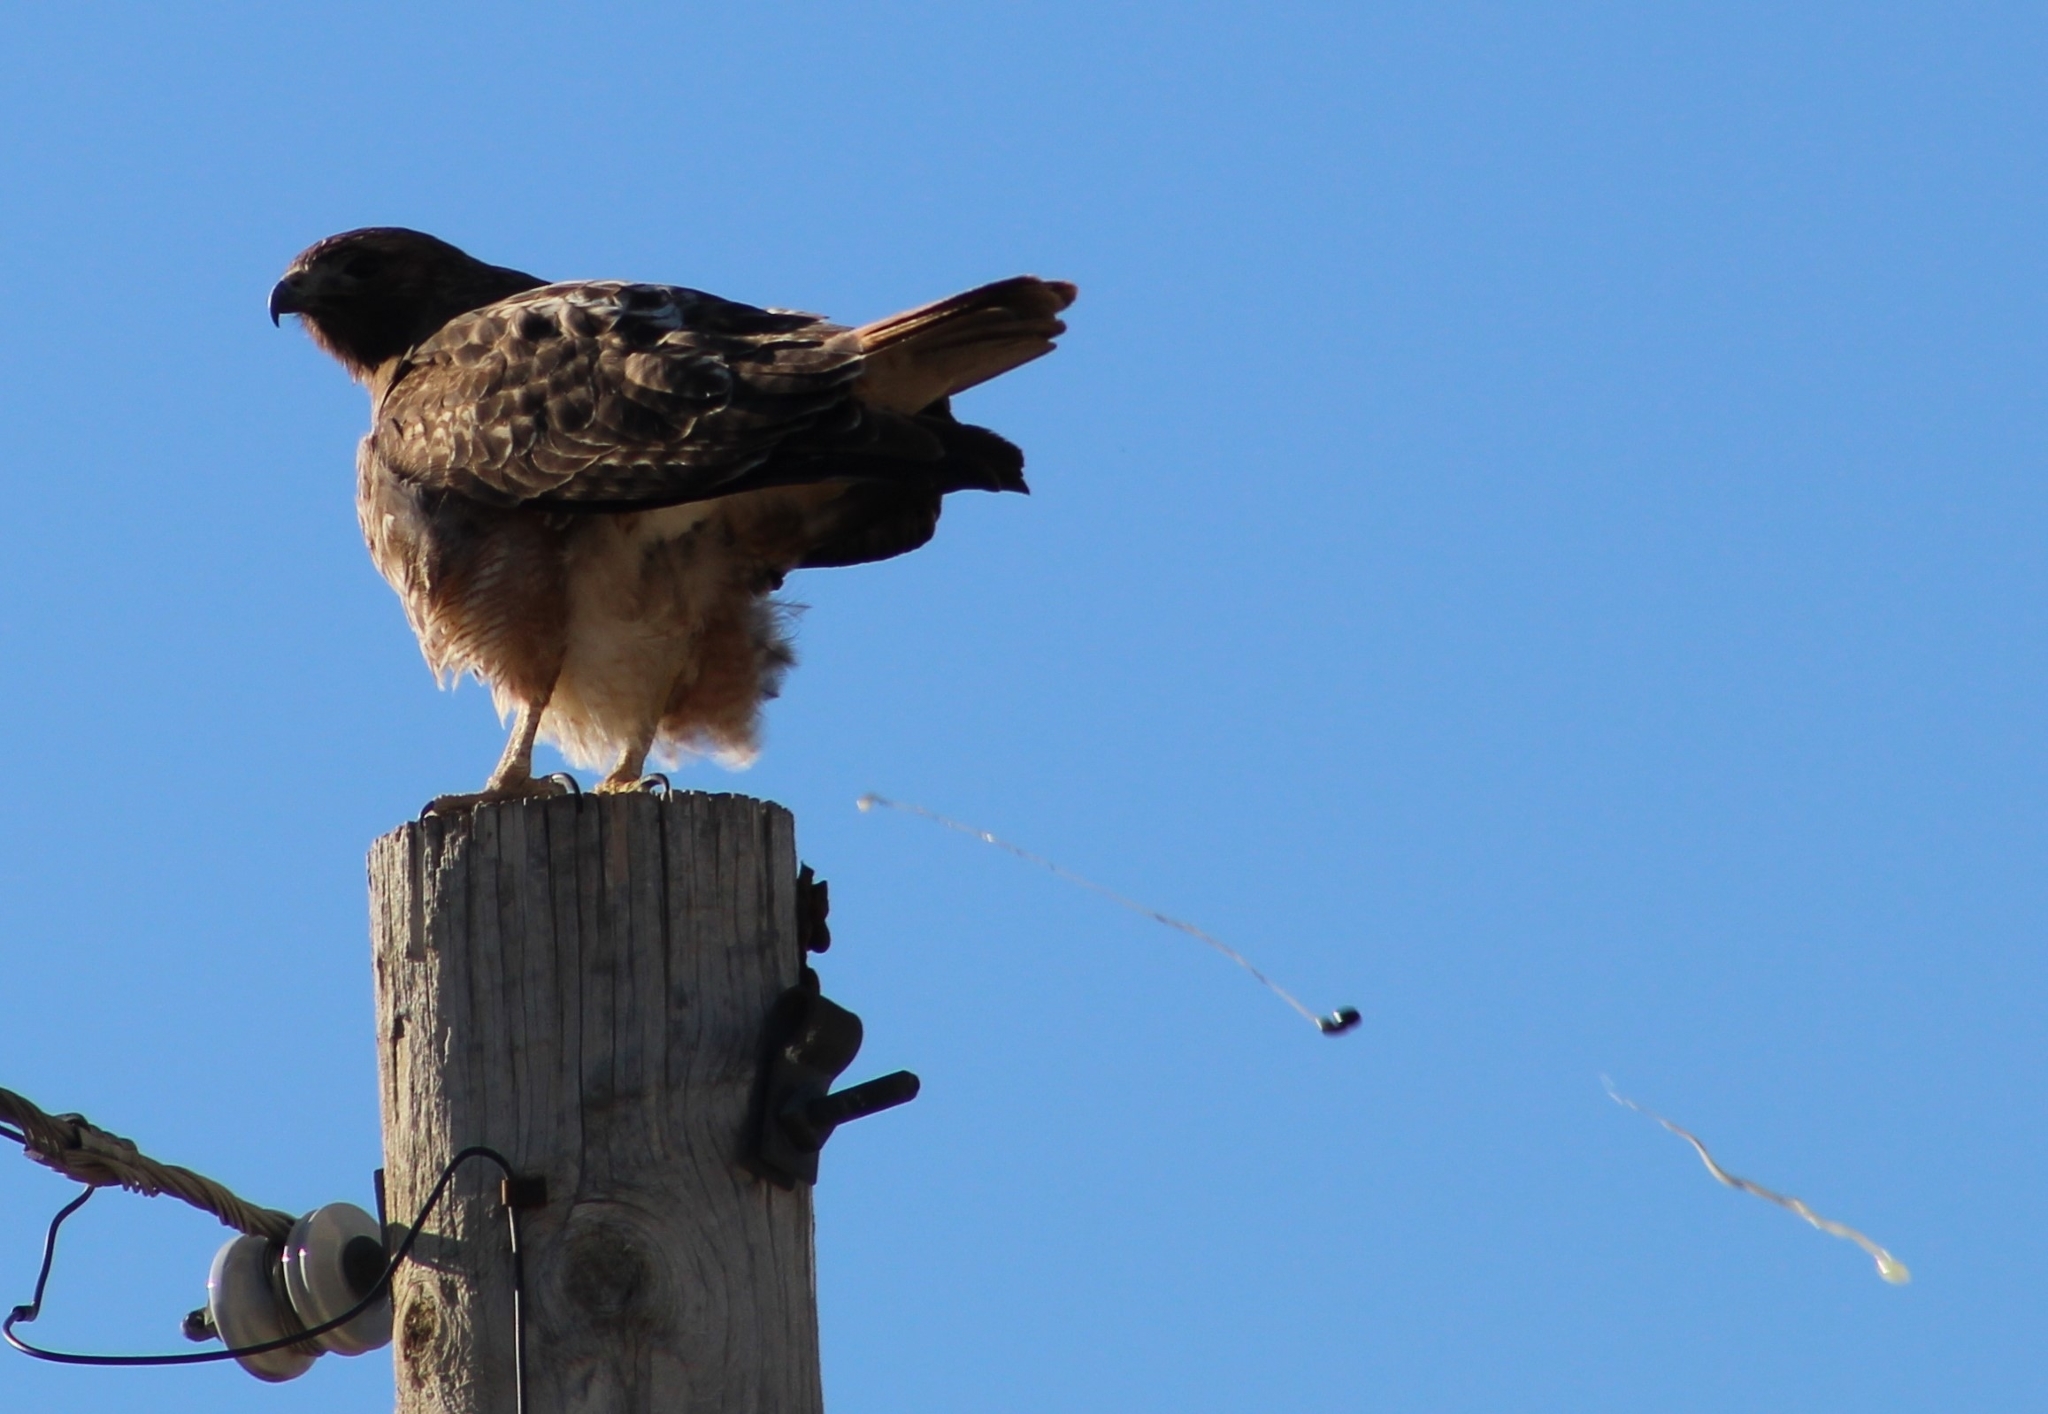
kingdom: Animalia
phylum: Chordata
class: Aves
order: Accipitriformes
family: Accipitridae
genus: Buteo
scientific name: Buteo jamaicensis
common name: Red-tailed hawk
